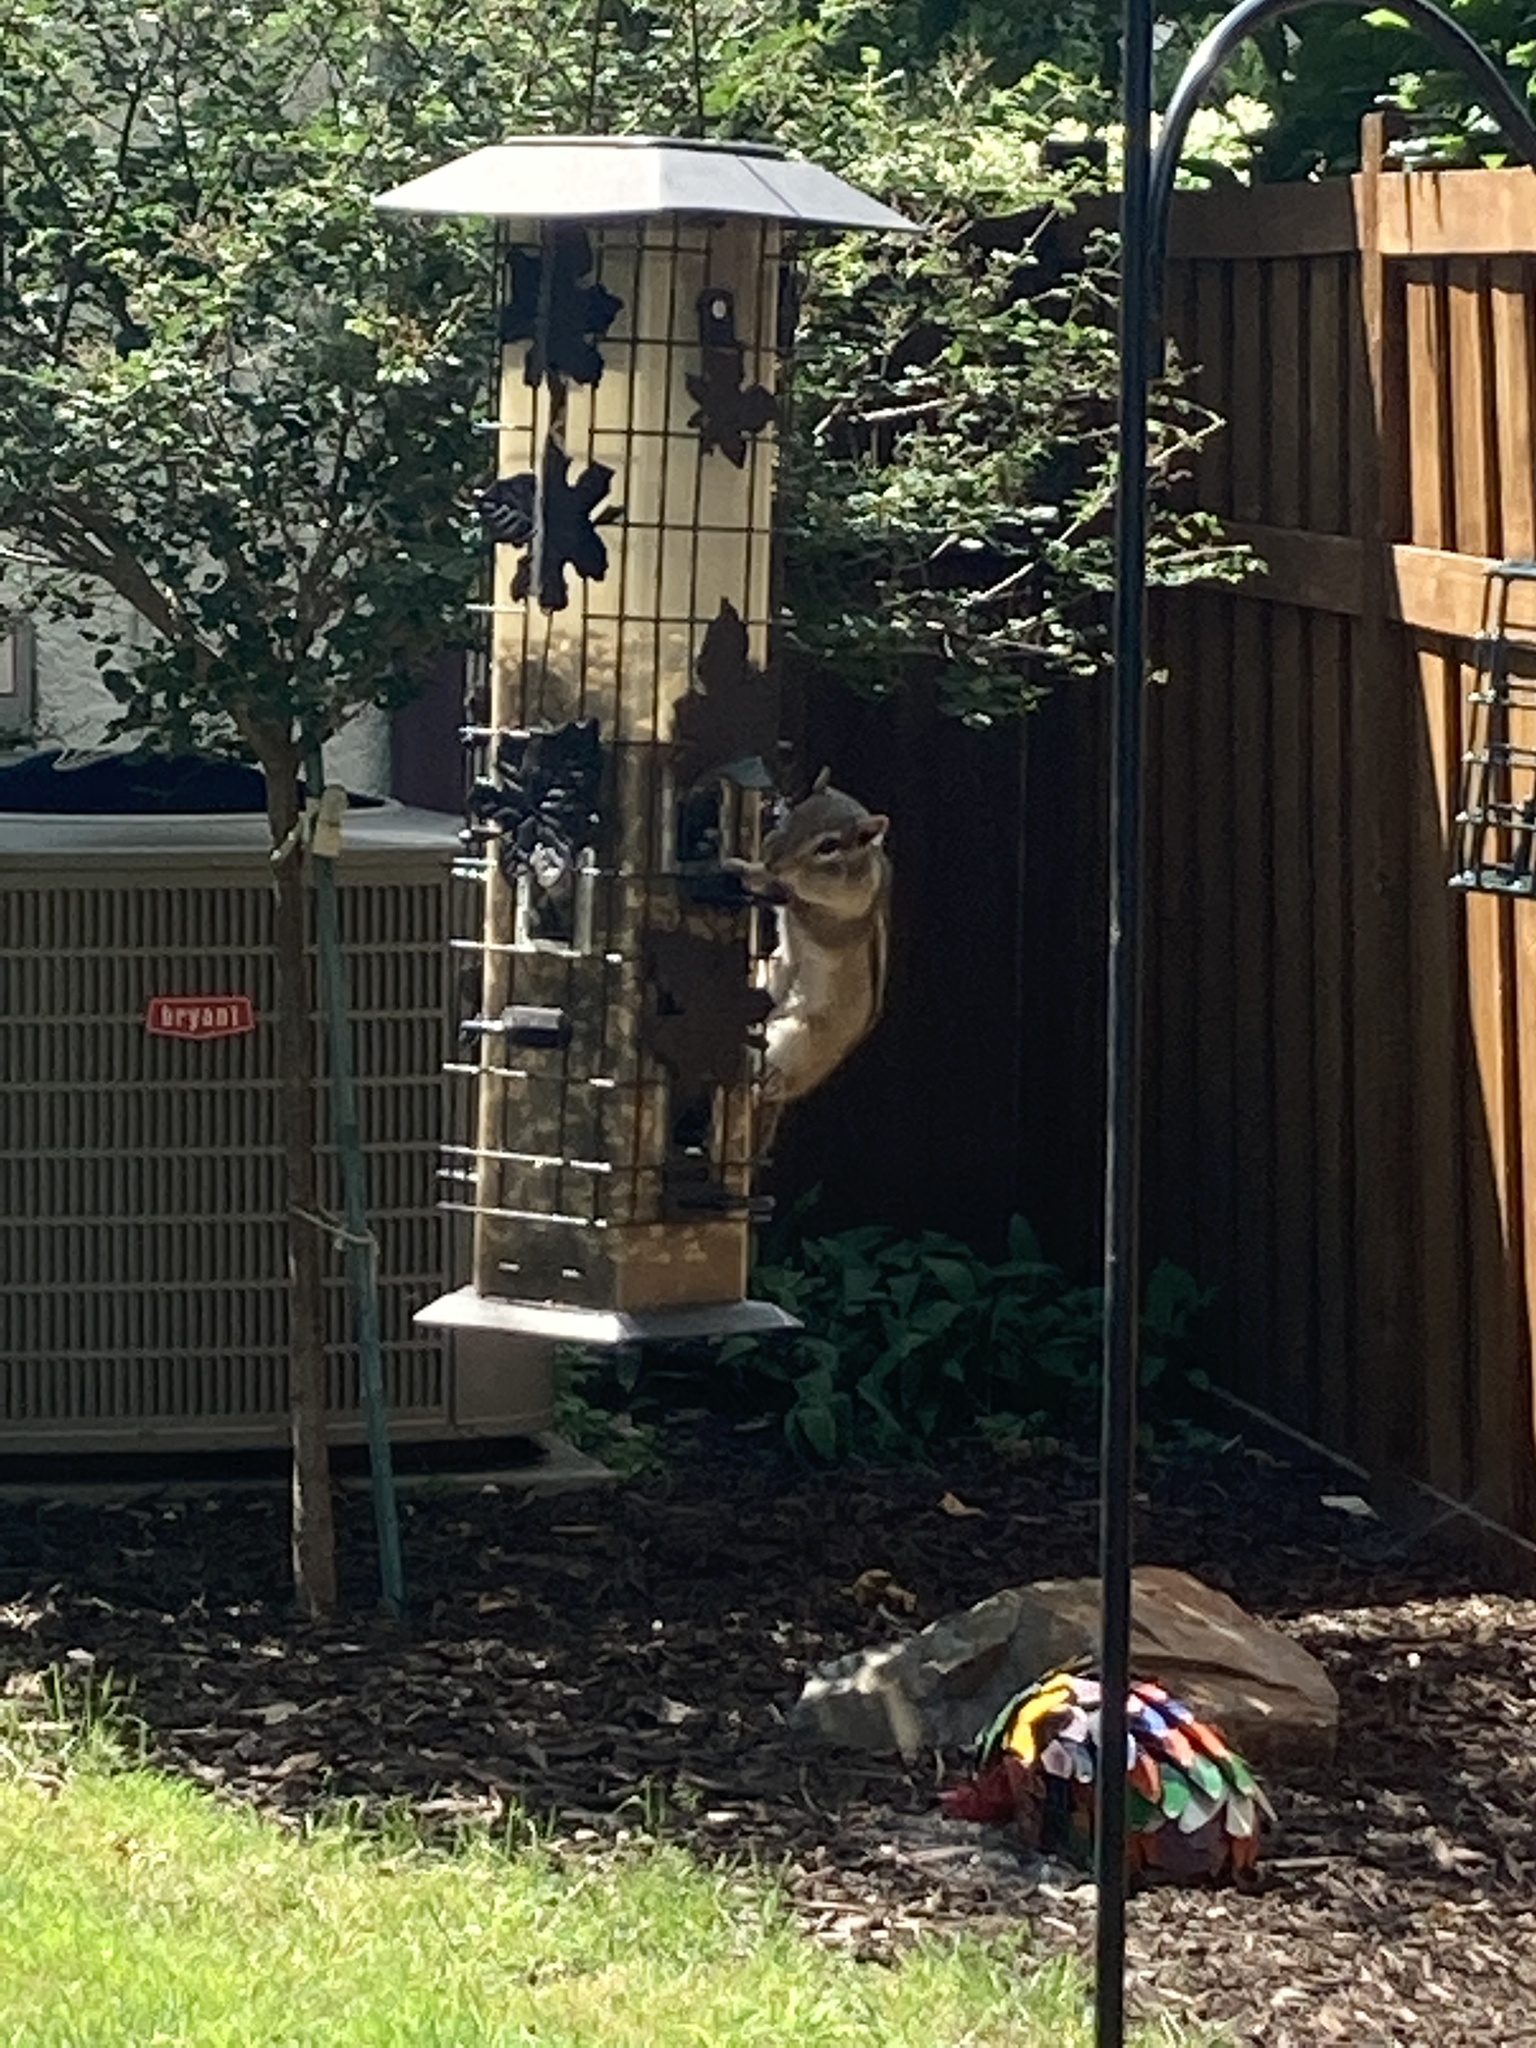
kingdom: Animalia
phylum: Chordata
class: Mammalia
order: Rodentia
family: Sciuridae
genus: Tamias
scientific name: Tamias striatus
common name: Eastern chipmunk
